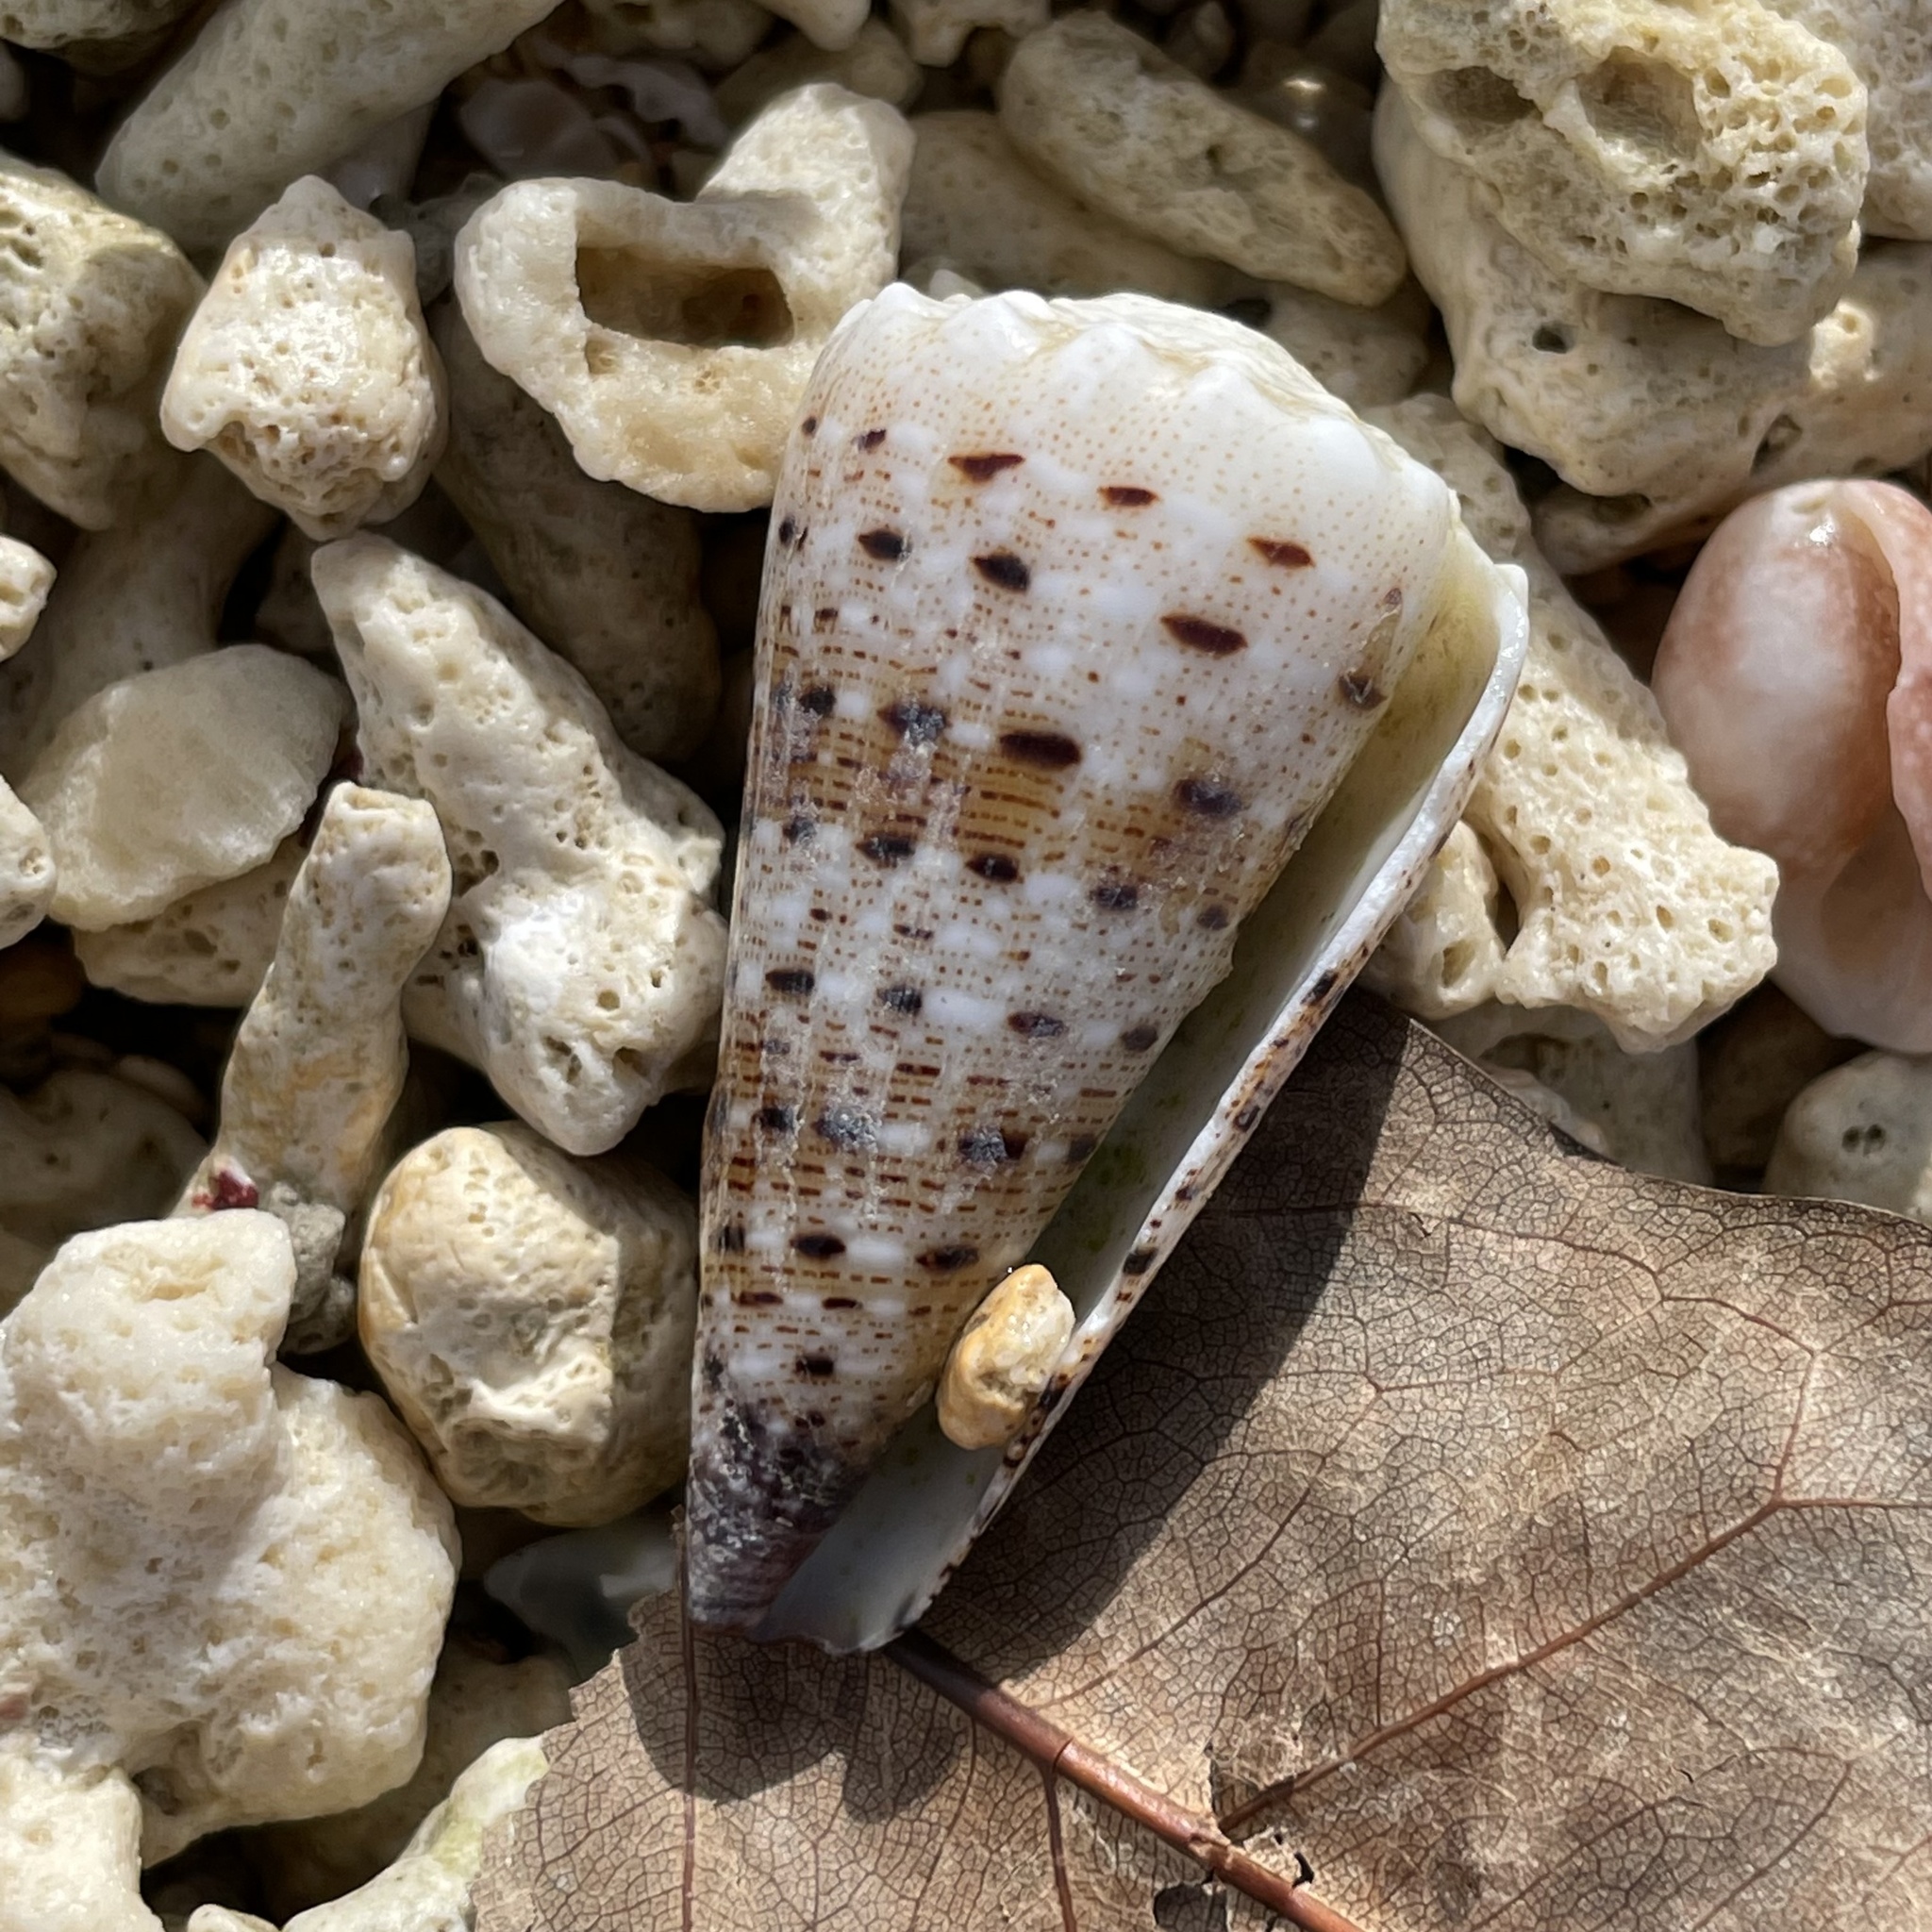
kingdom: Animalia
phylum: Mollusca
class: Gastropoda
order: Neogastropoda
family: Conidae
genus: Conus
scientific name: Conus imperialis
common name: Imperial cone
